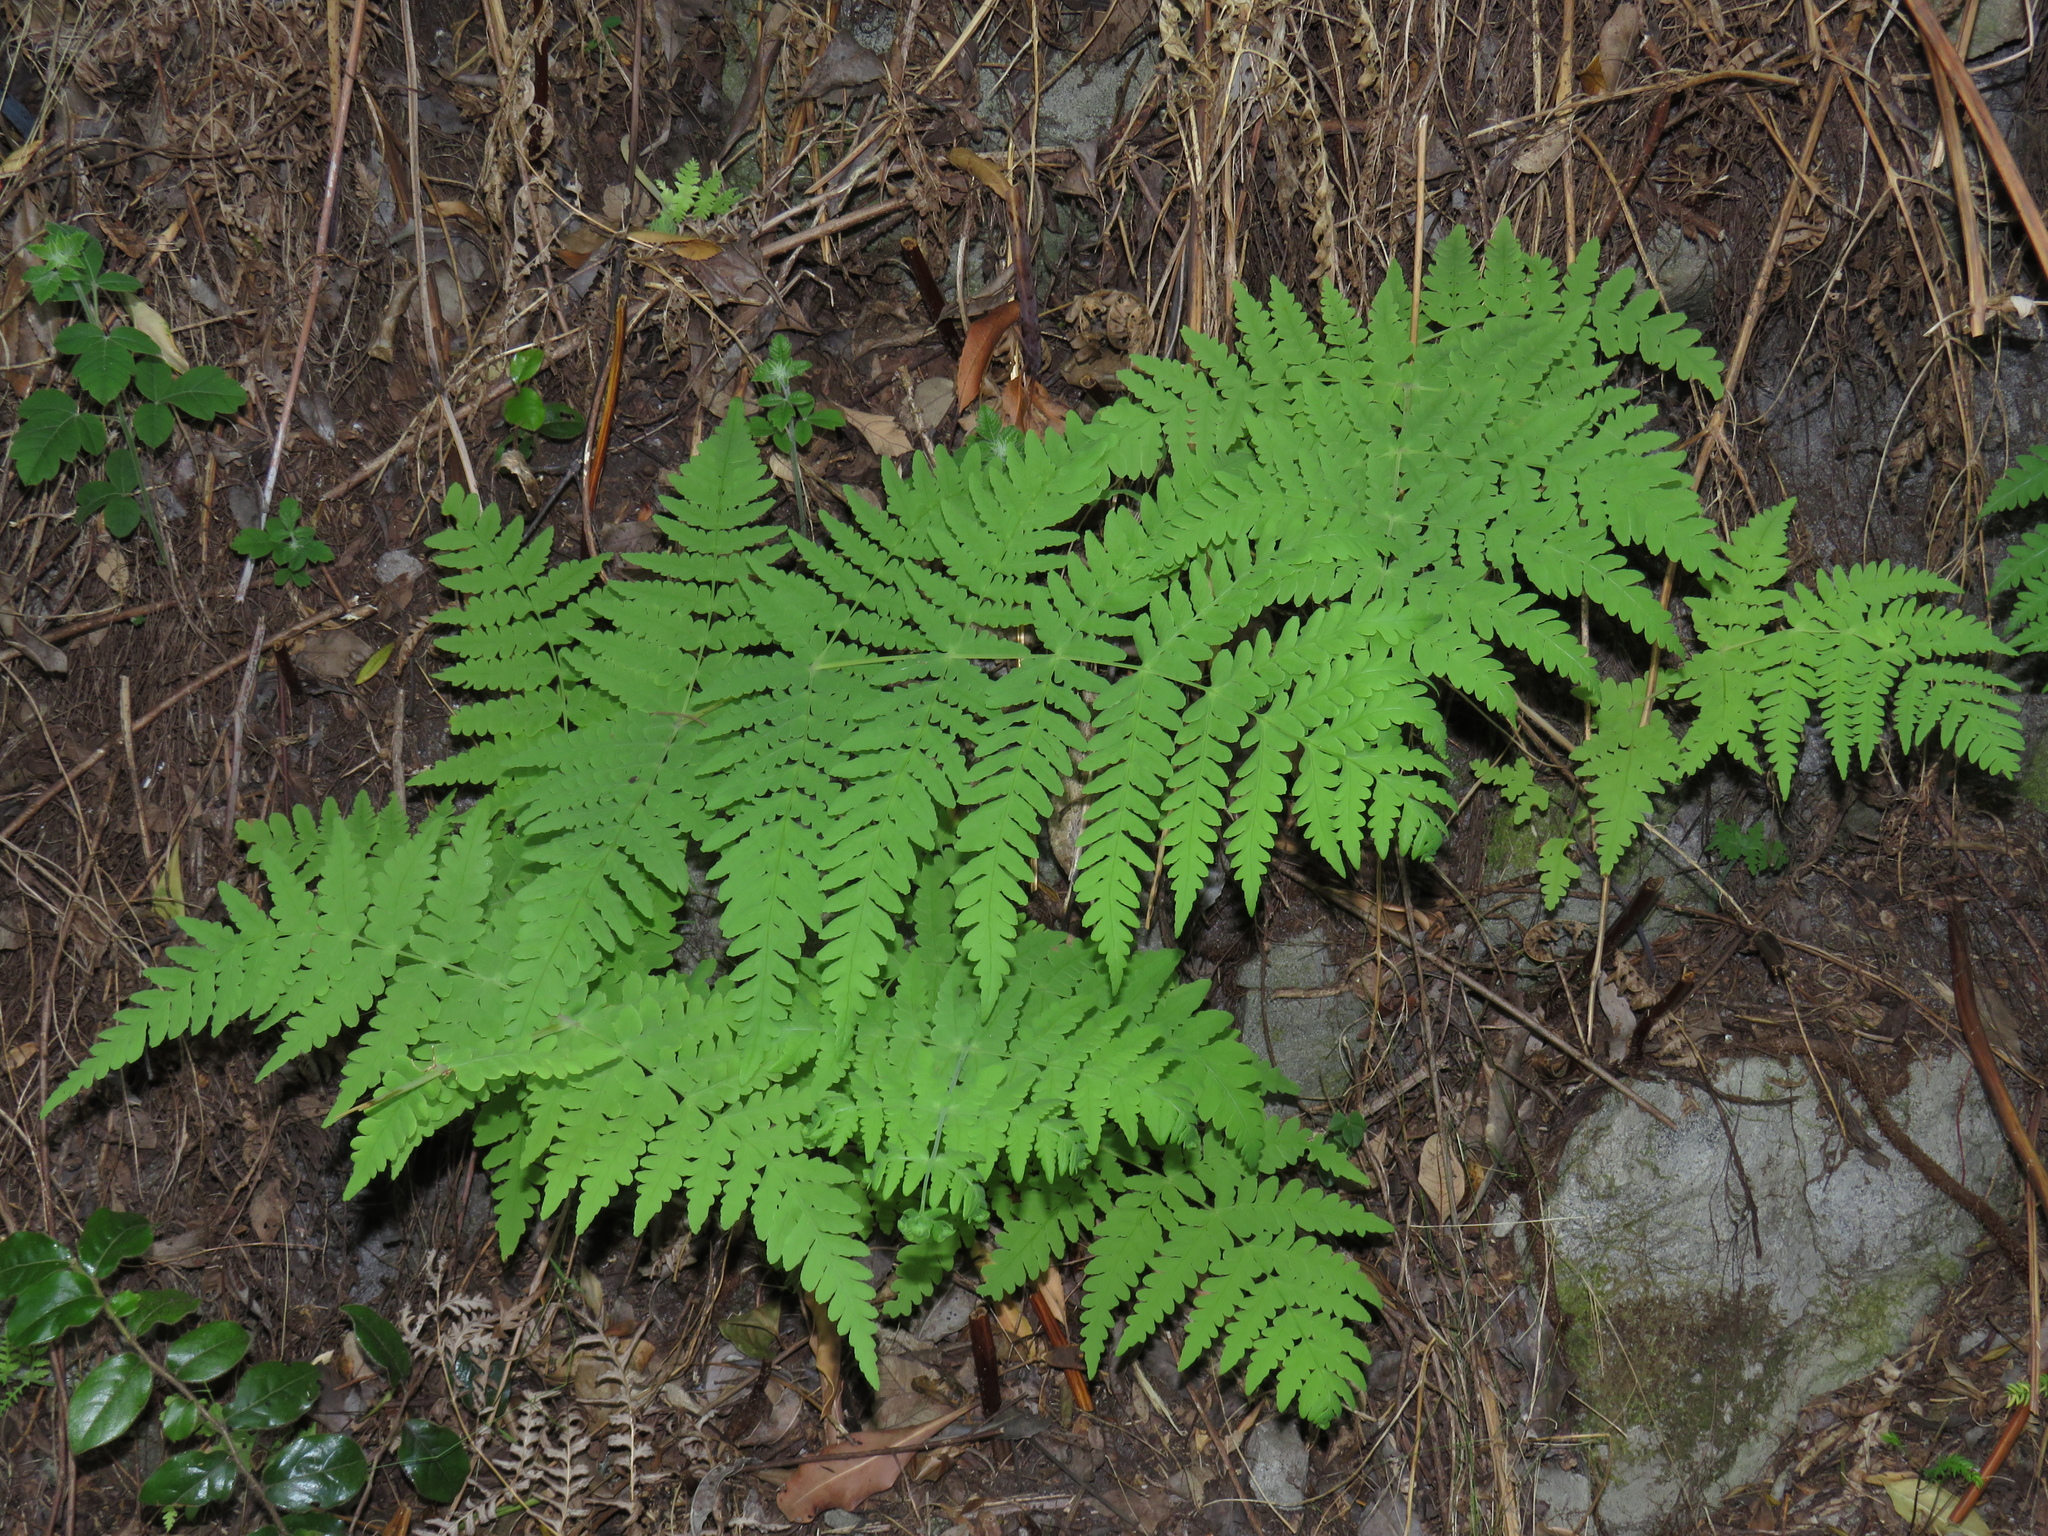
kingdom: Plantae
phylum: Tracheophyta
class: Polypodiopsida
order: Polypodiales
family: Dennstaedtiaceae
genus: Histiopteris
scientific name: Histiopteris incisa
